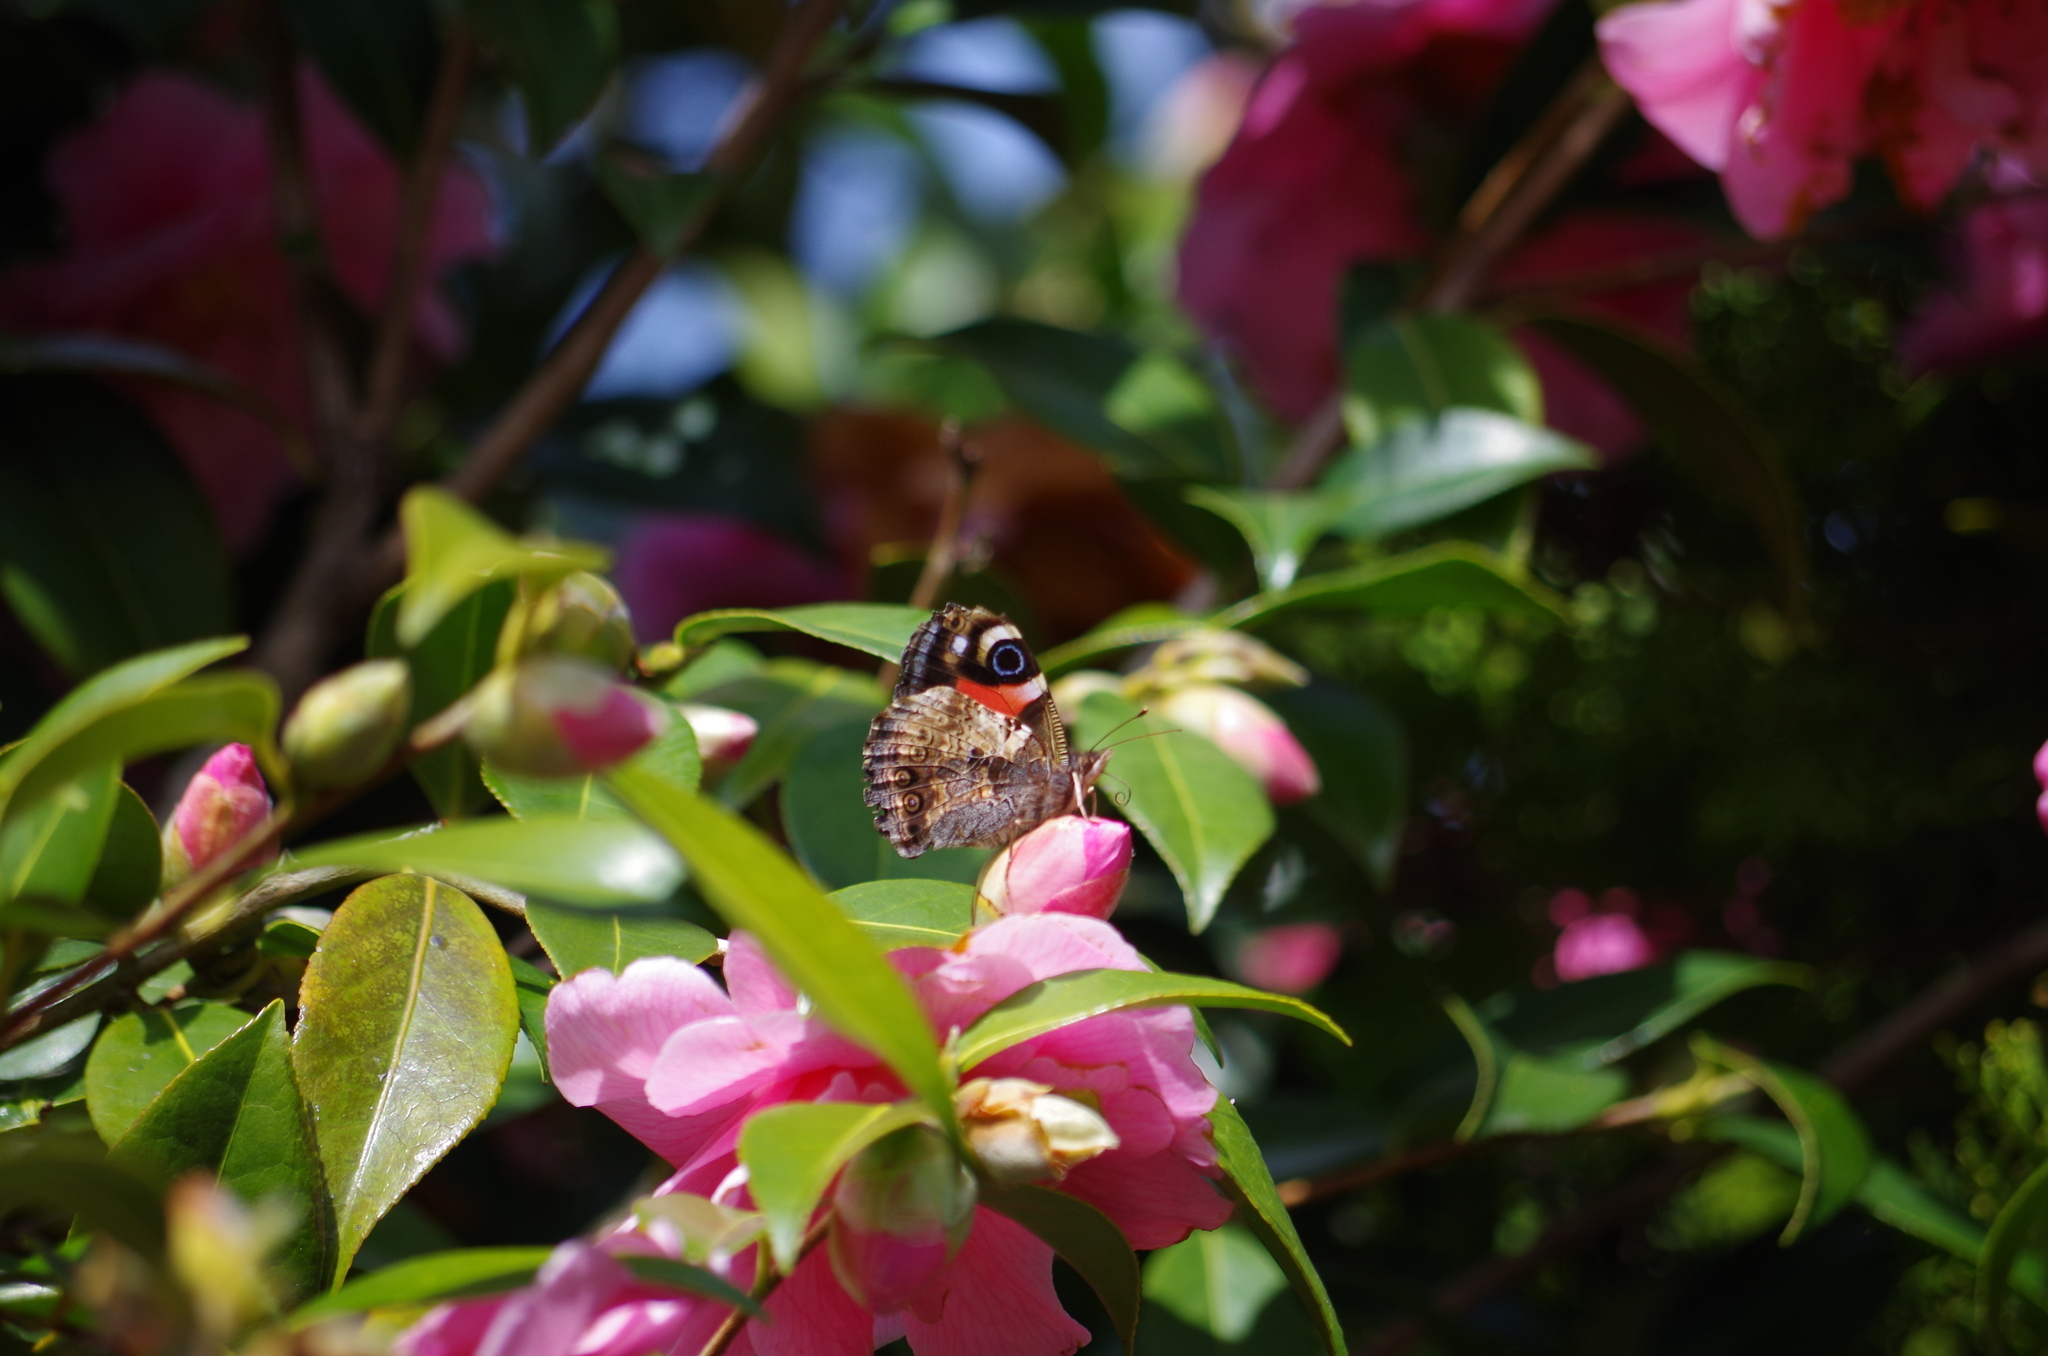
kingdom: Animalia
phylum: Arthropoda
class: Insecta
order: Lepidoptera
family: Nymphalidae
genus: Vanessa
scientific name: Vanessa gonerilla
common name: New zealand red admiral
